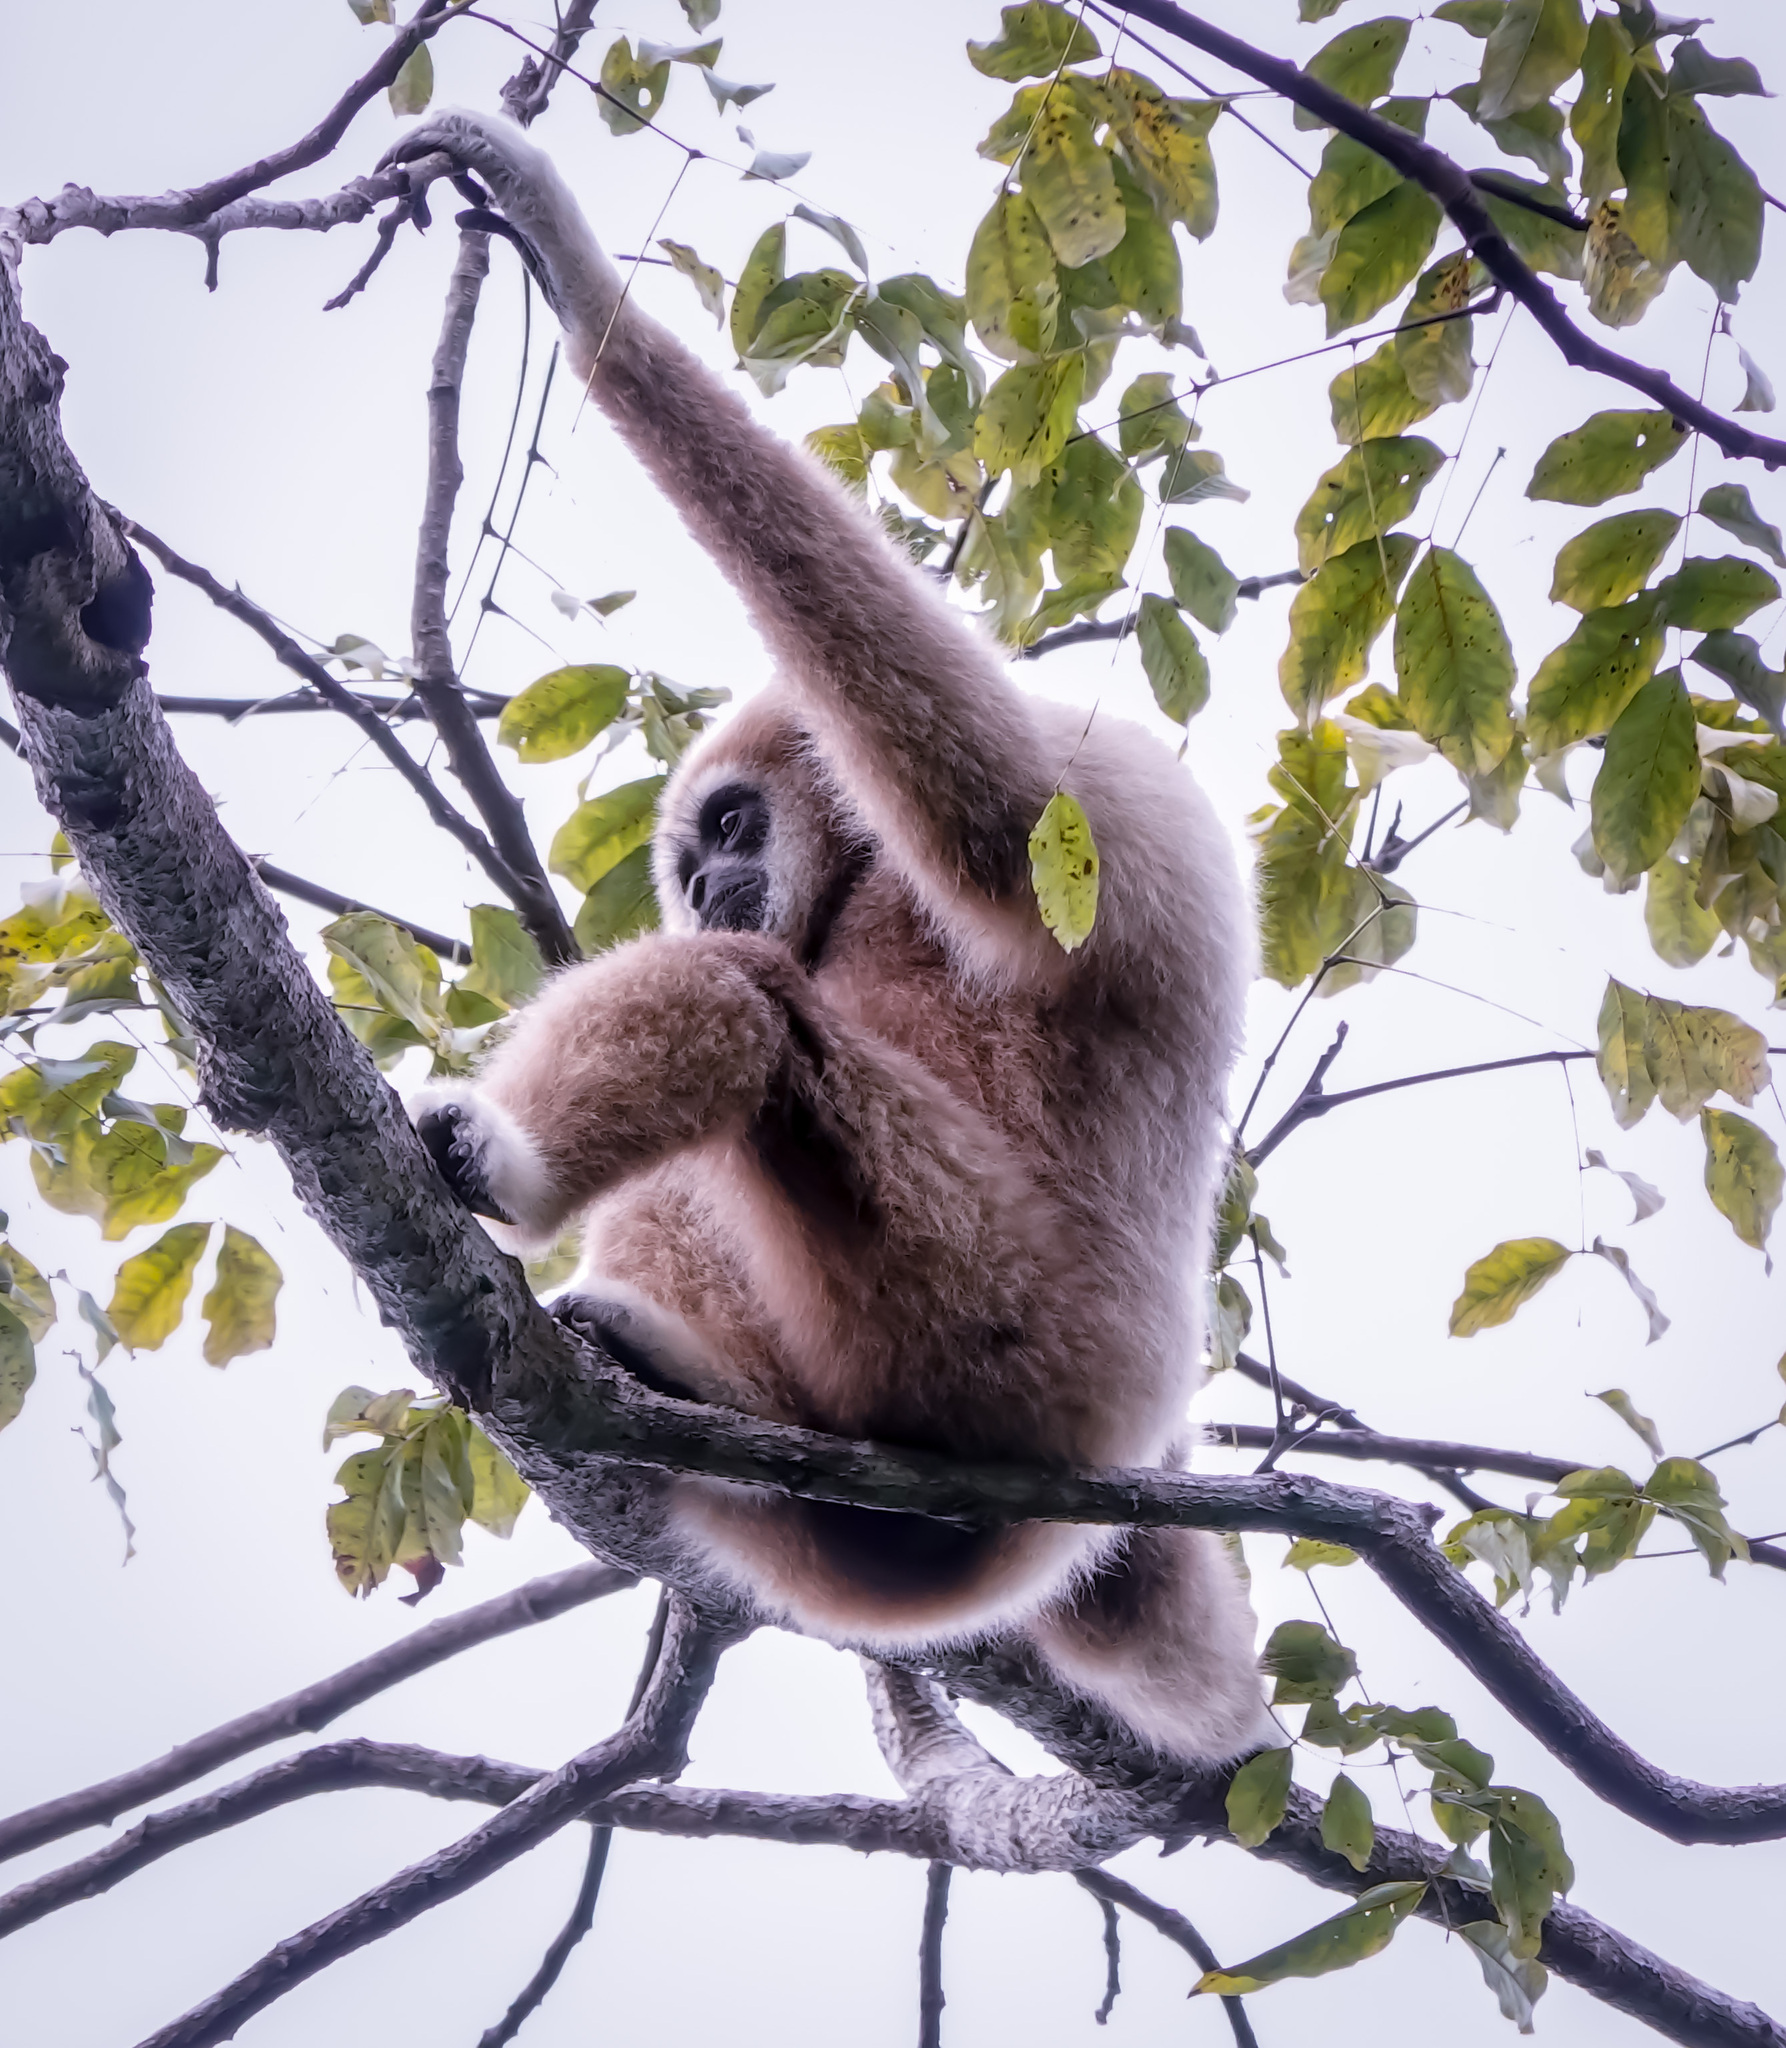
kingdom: Animalia
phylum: Chordata
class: Mammalia
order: Primates
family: Hylobatidae
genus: Hylobates
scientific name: Hylobates lar
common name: Lar gibbon
